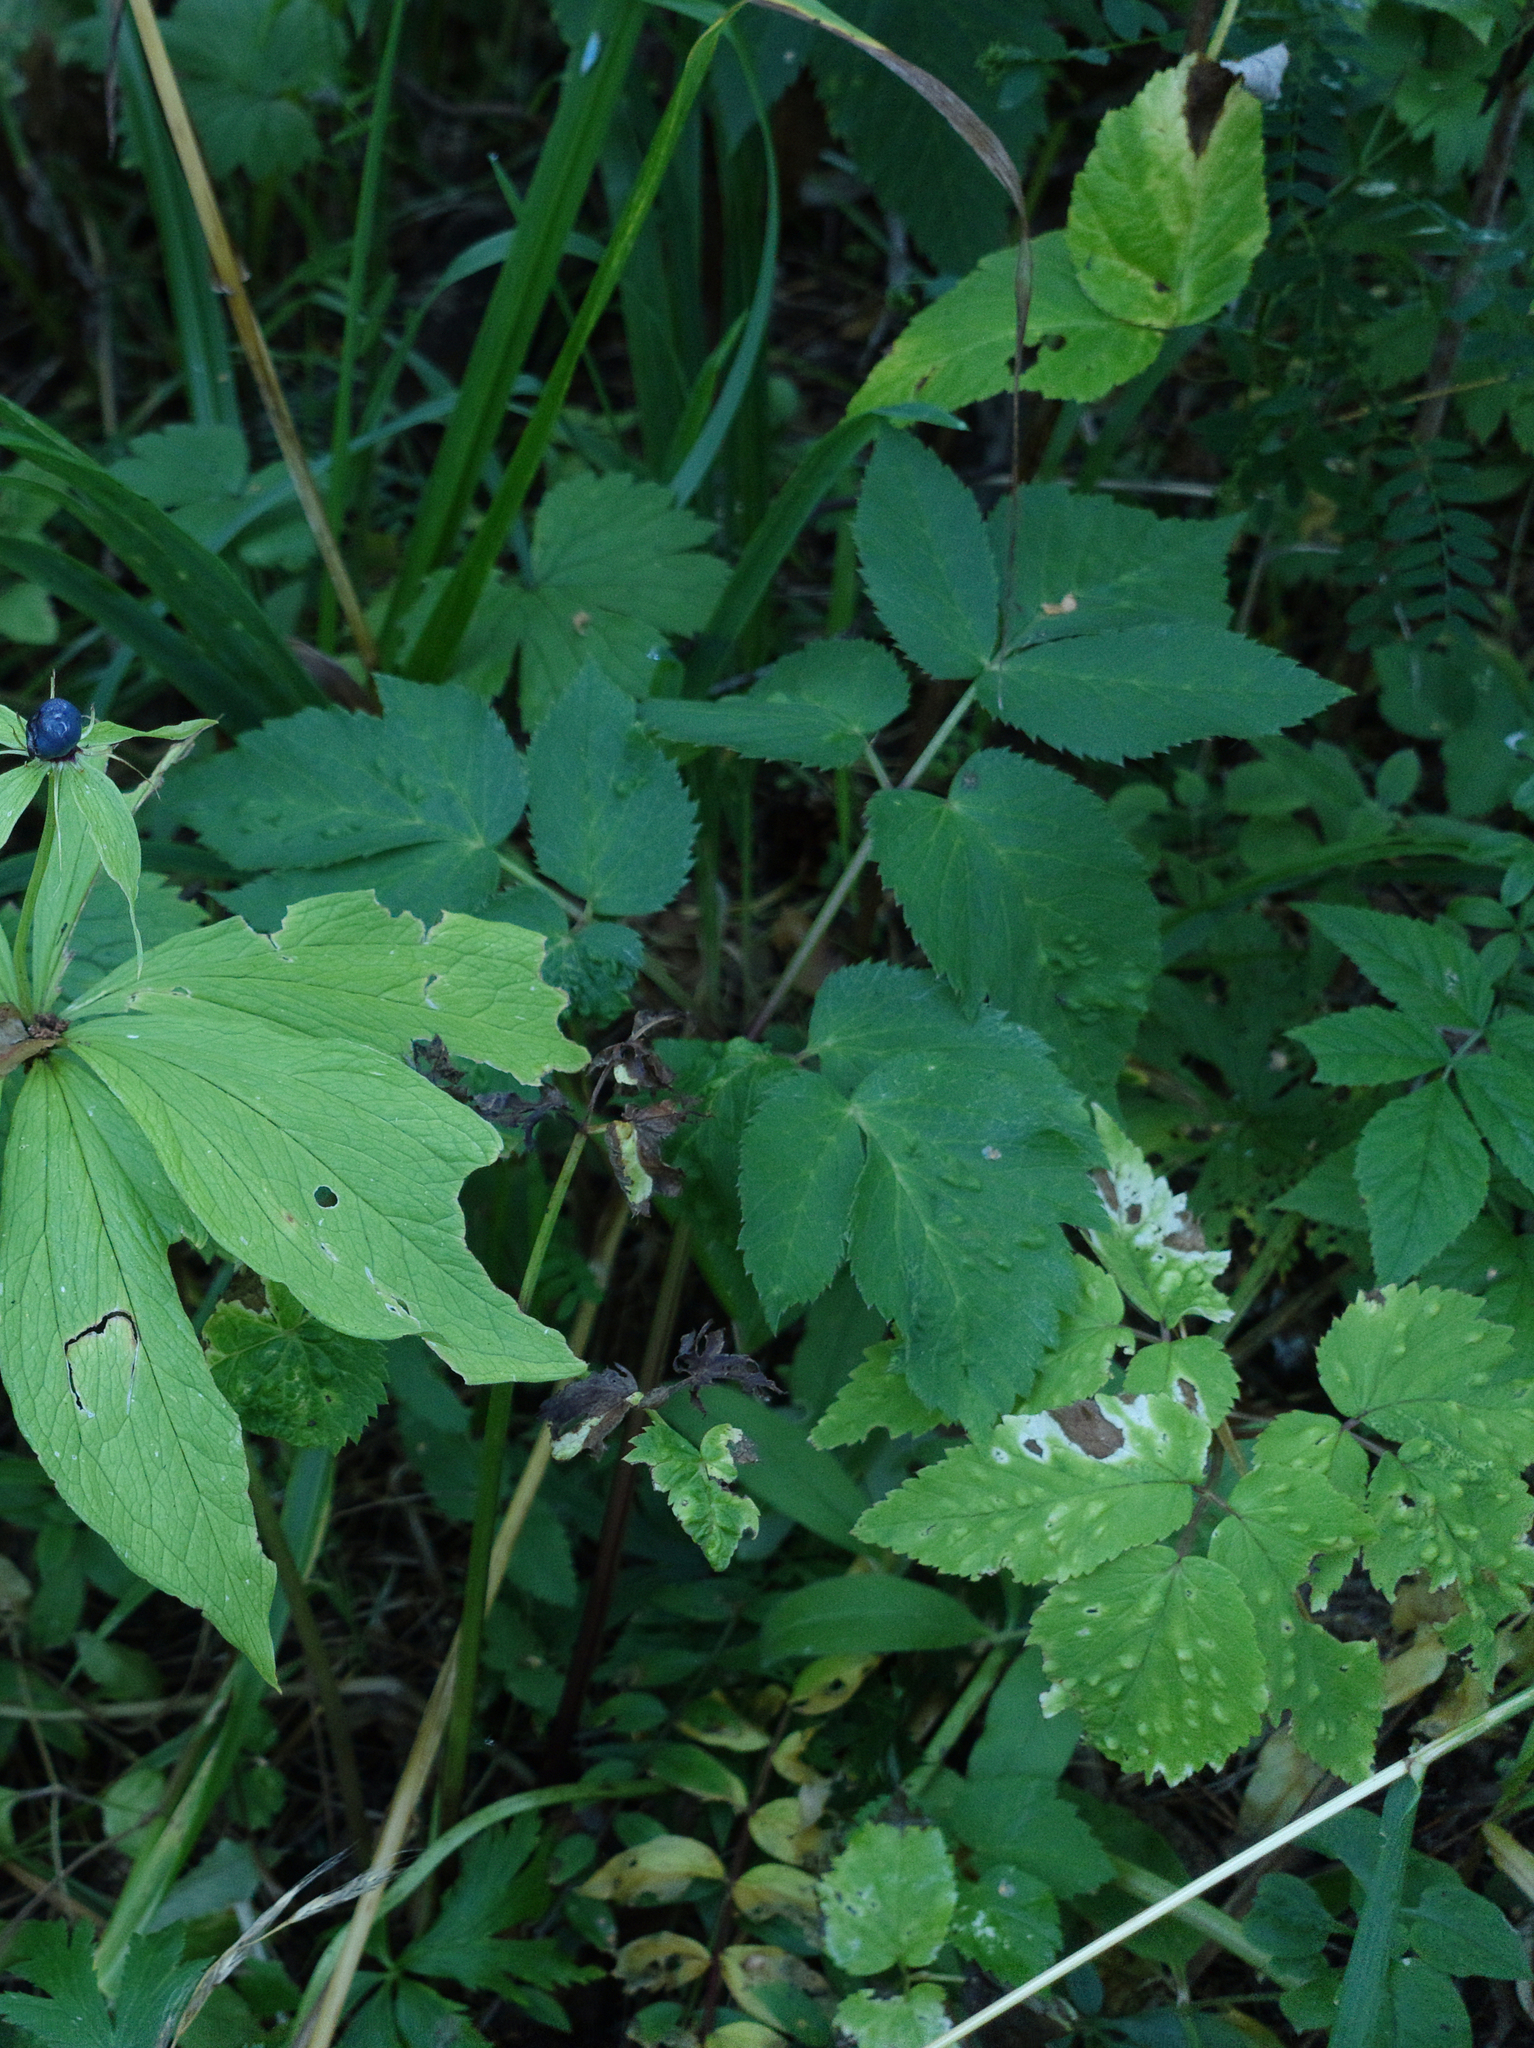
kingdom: Plantae
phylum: Tracheophyta
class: Magnoliopsida
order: Apiales
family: Apiaceae
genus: Aegopodium
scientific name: Aegopodium podagraria
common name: Ground-elder
